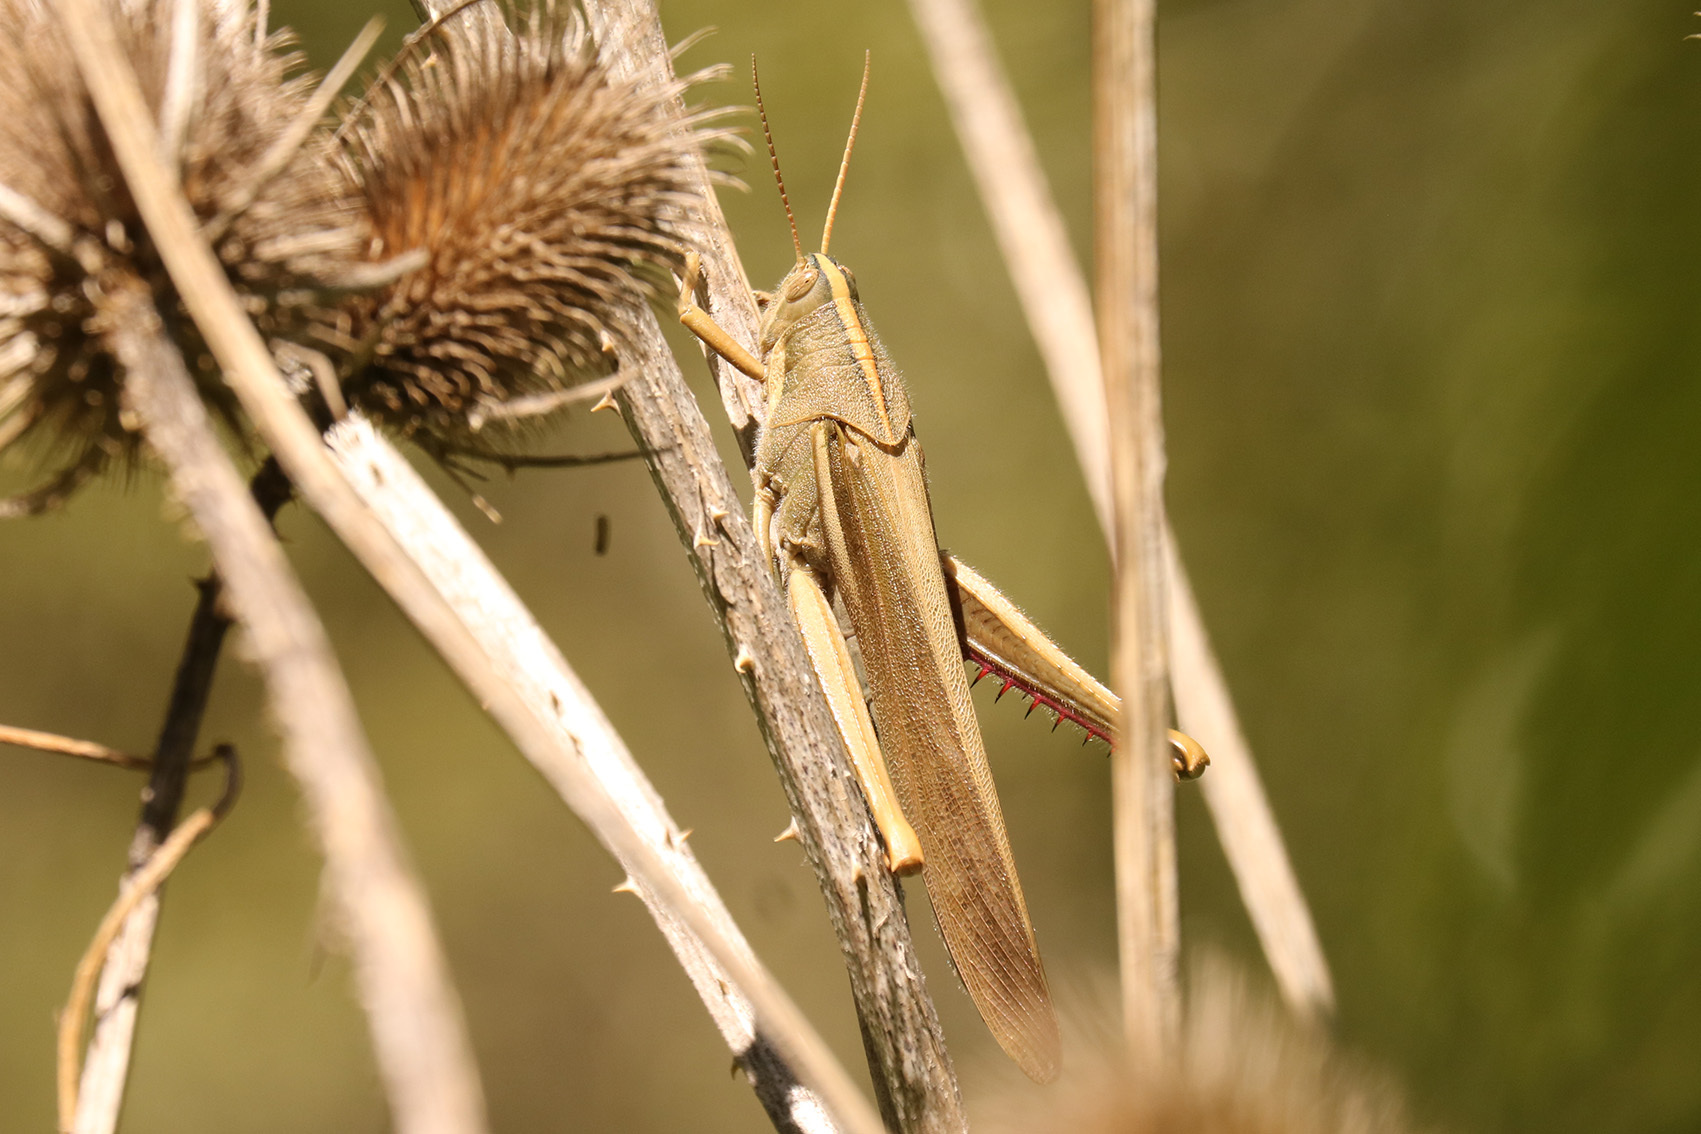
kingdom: Animalia
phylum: Arthropoda
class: Insecta
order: Orthoptera
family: Acrididae
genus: Schistocerca
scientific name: Schistocerca flavofasciata
